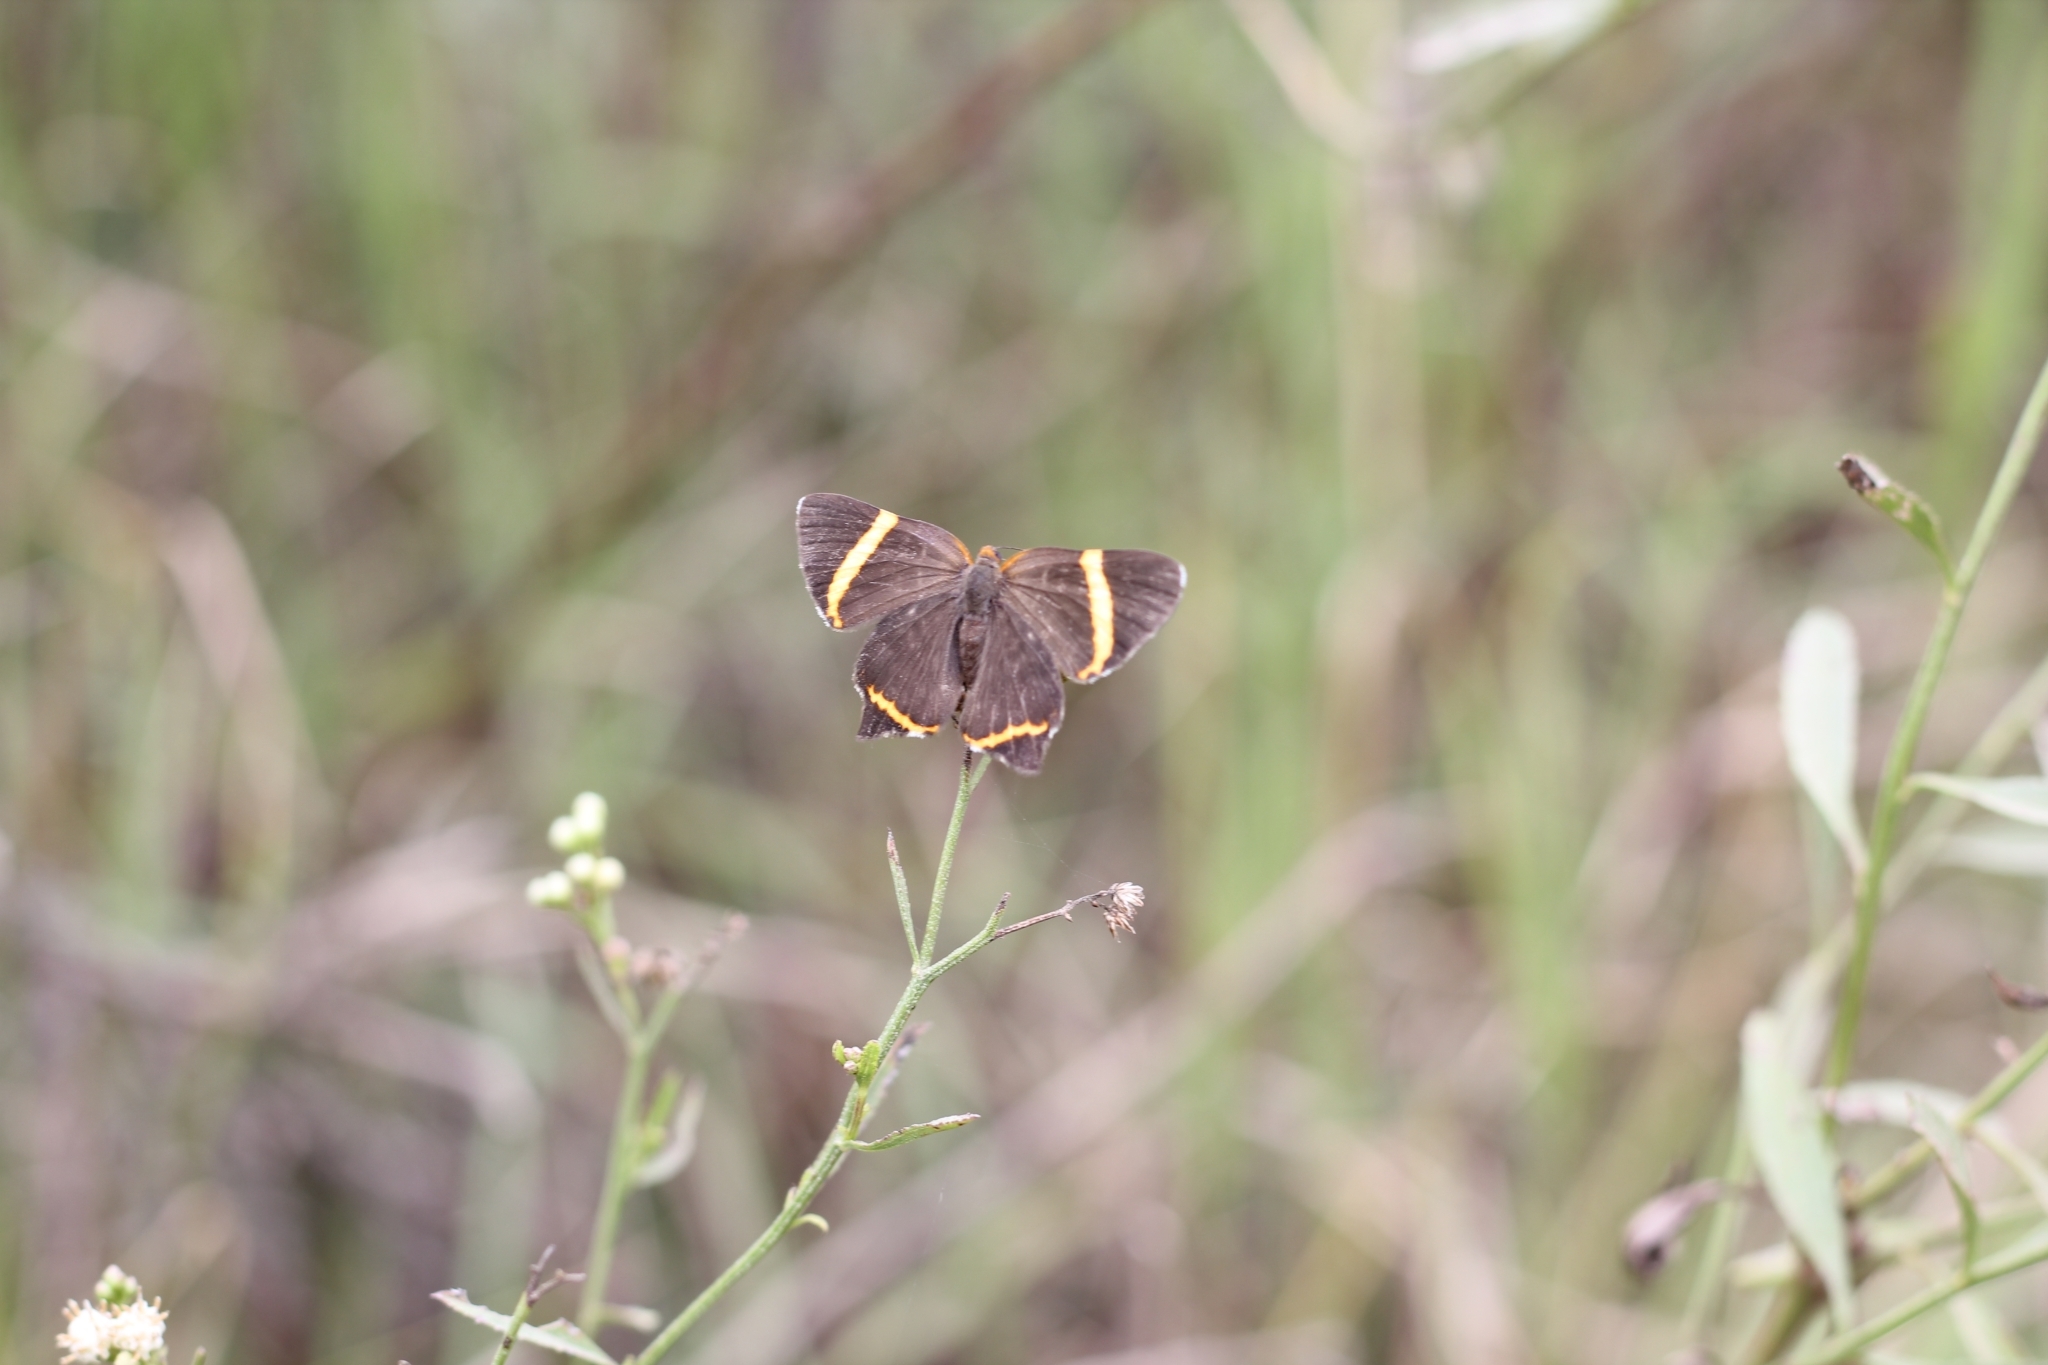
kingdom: Animalia
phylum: Arthropoda
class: Insecta
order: Lepidoptera
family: Riodinidae
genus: Riodina
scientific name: Riodina lysippoides
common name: Little dancer metalmark
